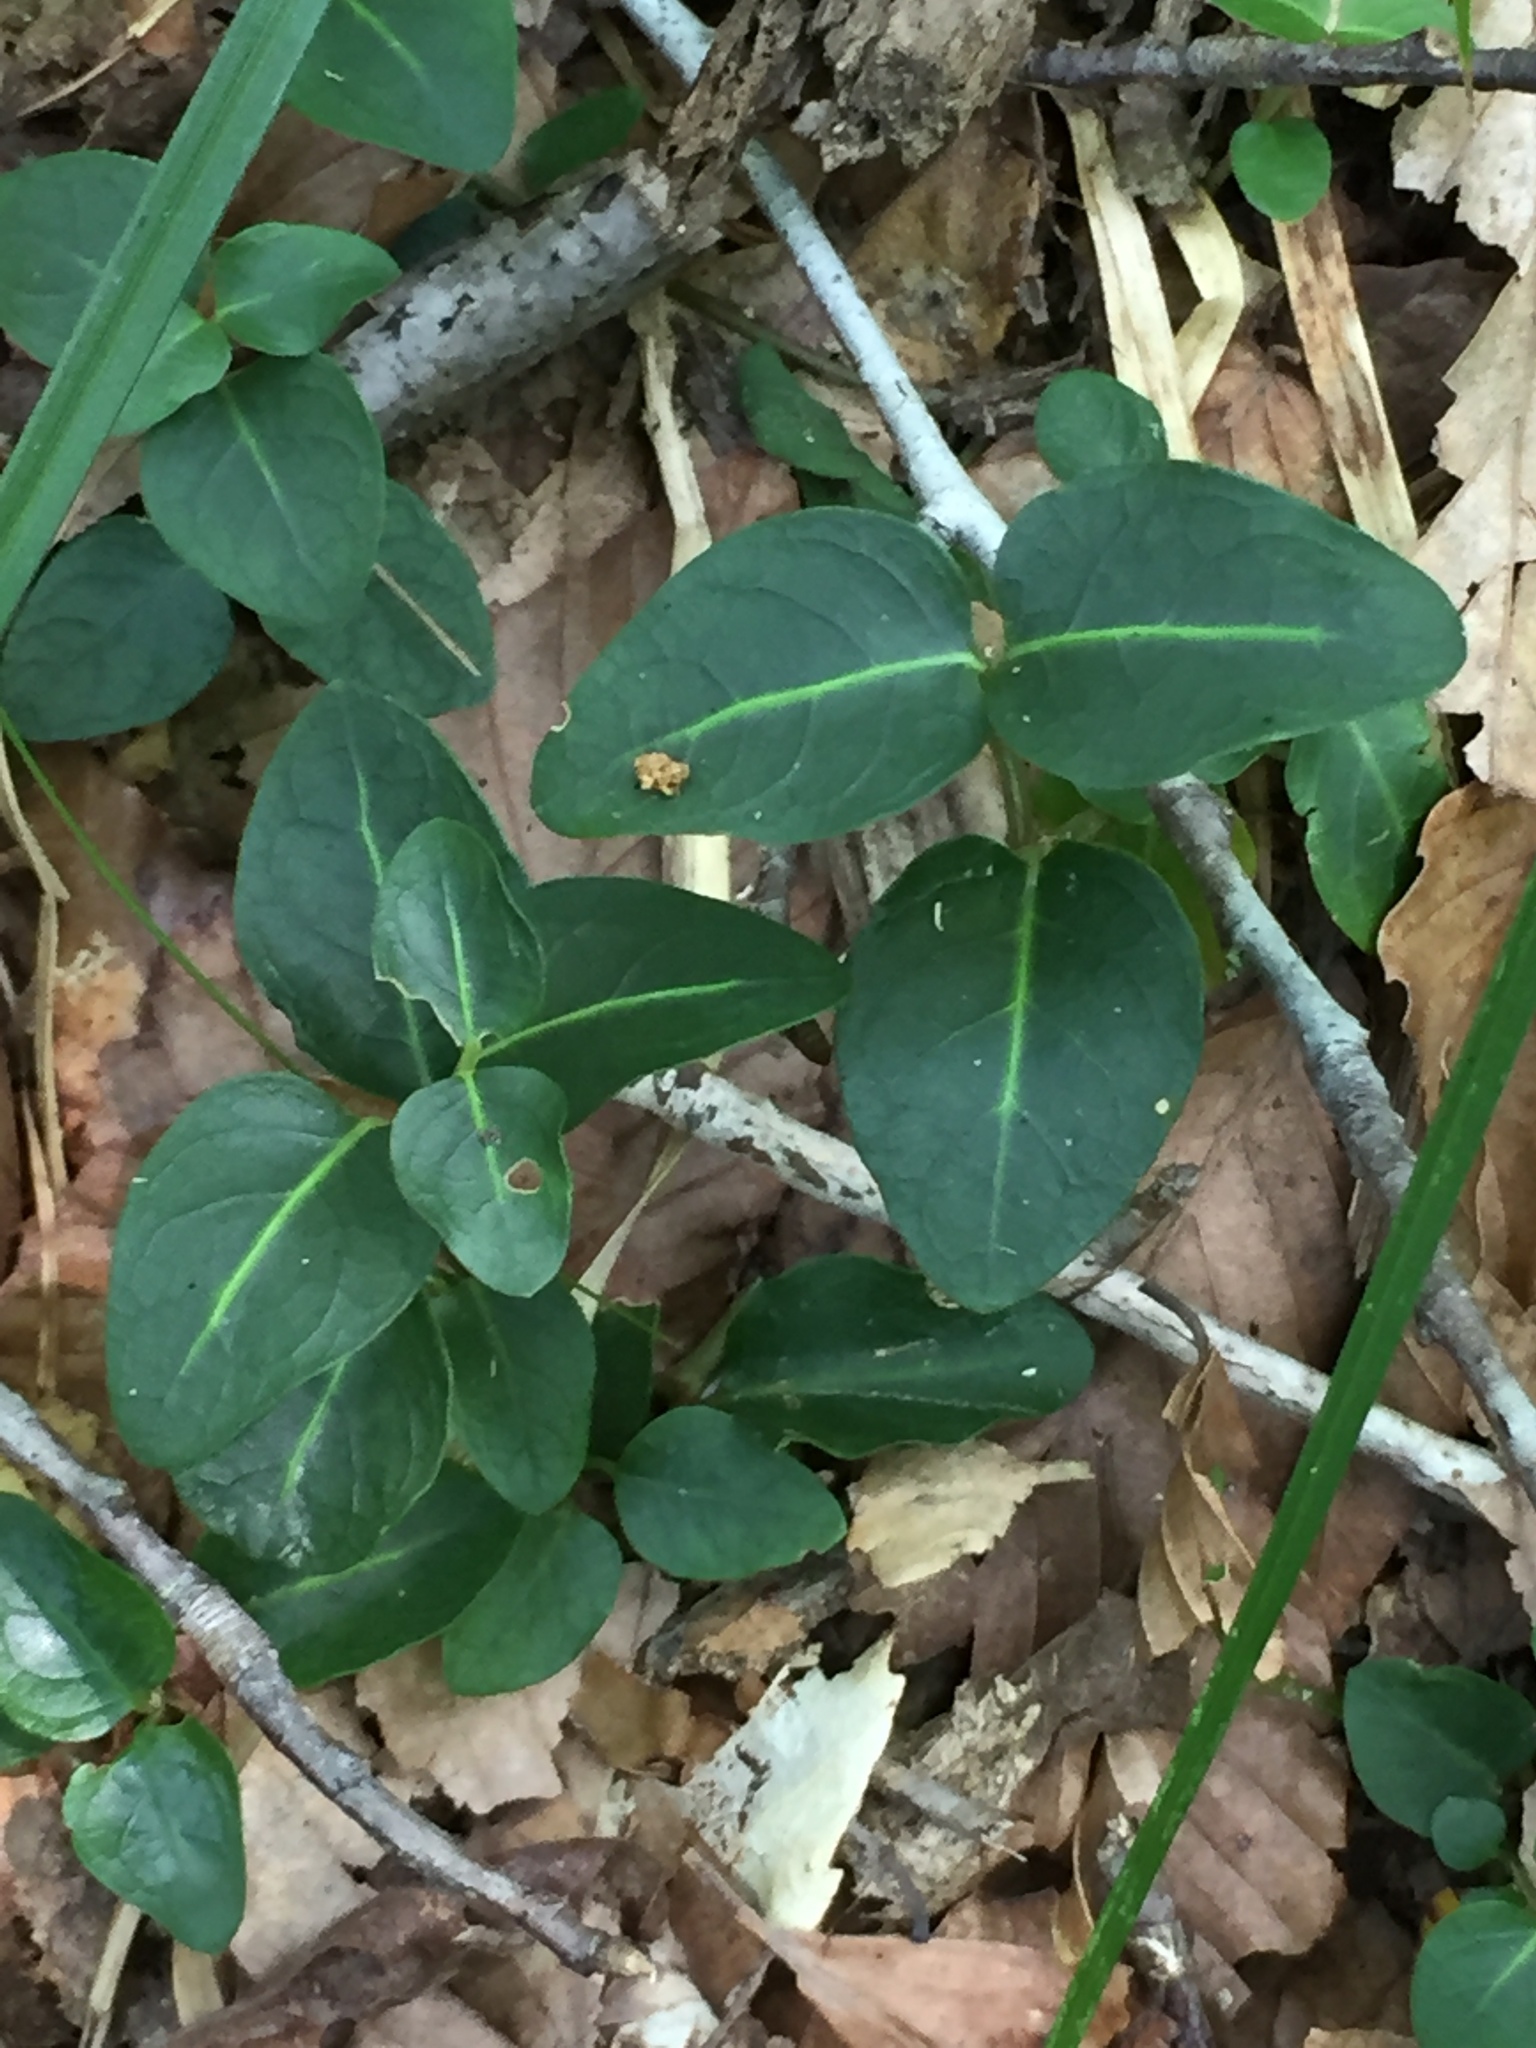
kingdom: Plantae
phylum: Tracheophyta
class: Magnoliopsida
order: Gentianales
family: Rubiaceae
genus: Mitchella
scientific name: Mitchella repens
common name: Partridge-berry
